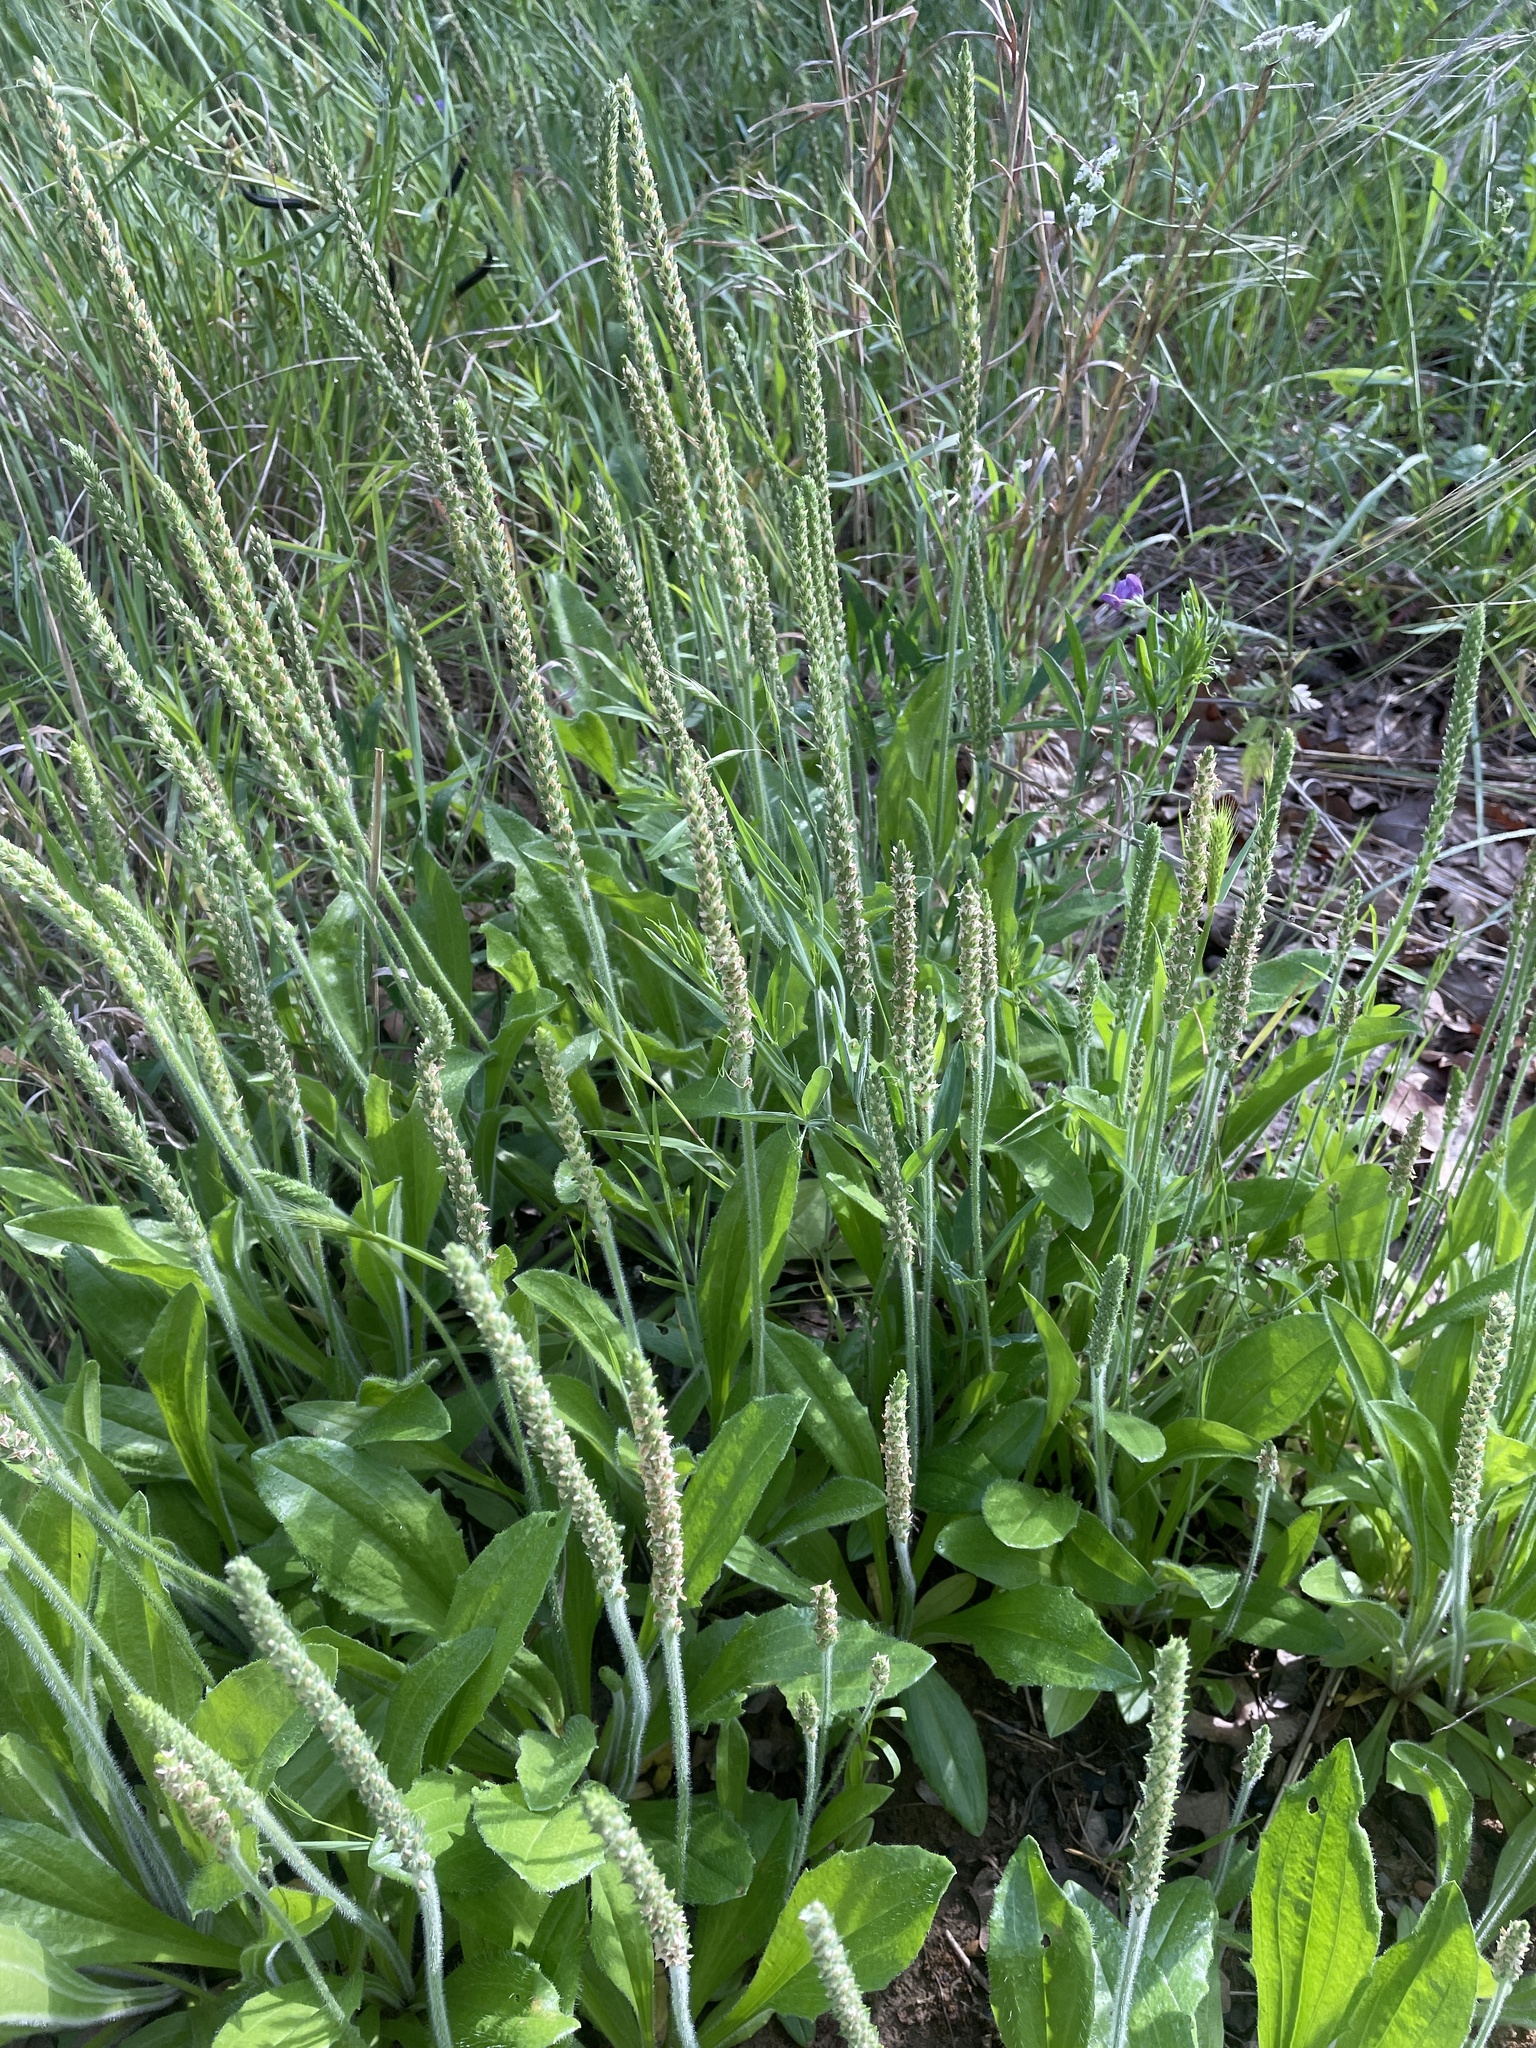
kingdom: Plantae
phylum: Tracheophyta
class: Magnoliopsida
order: Lamiales
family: Plantaginaceae
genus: Plantago
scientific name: Plantago rhodosperma
